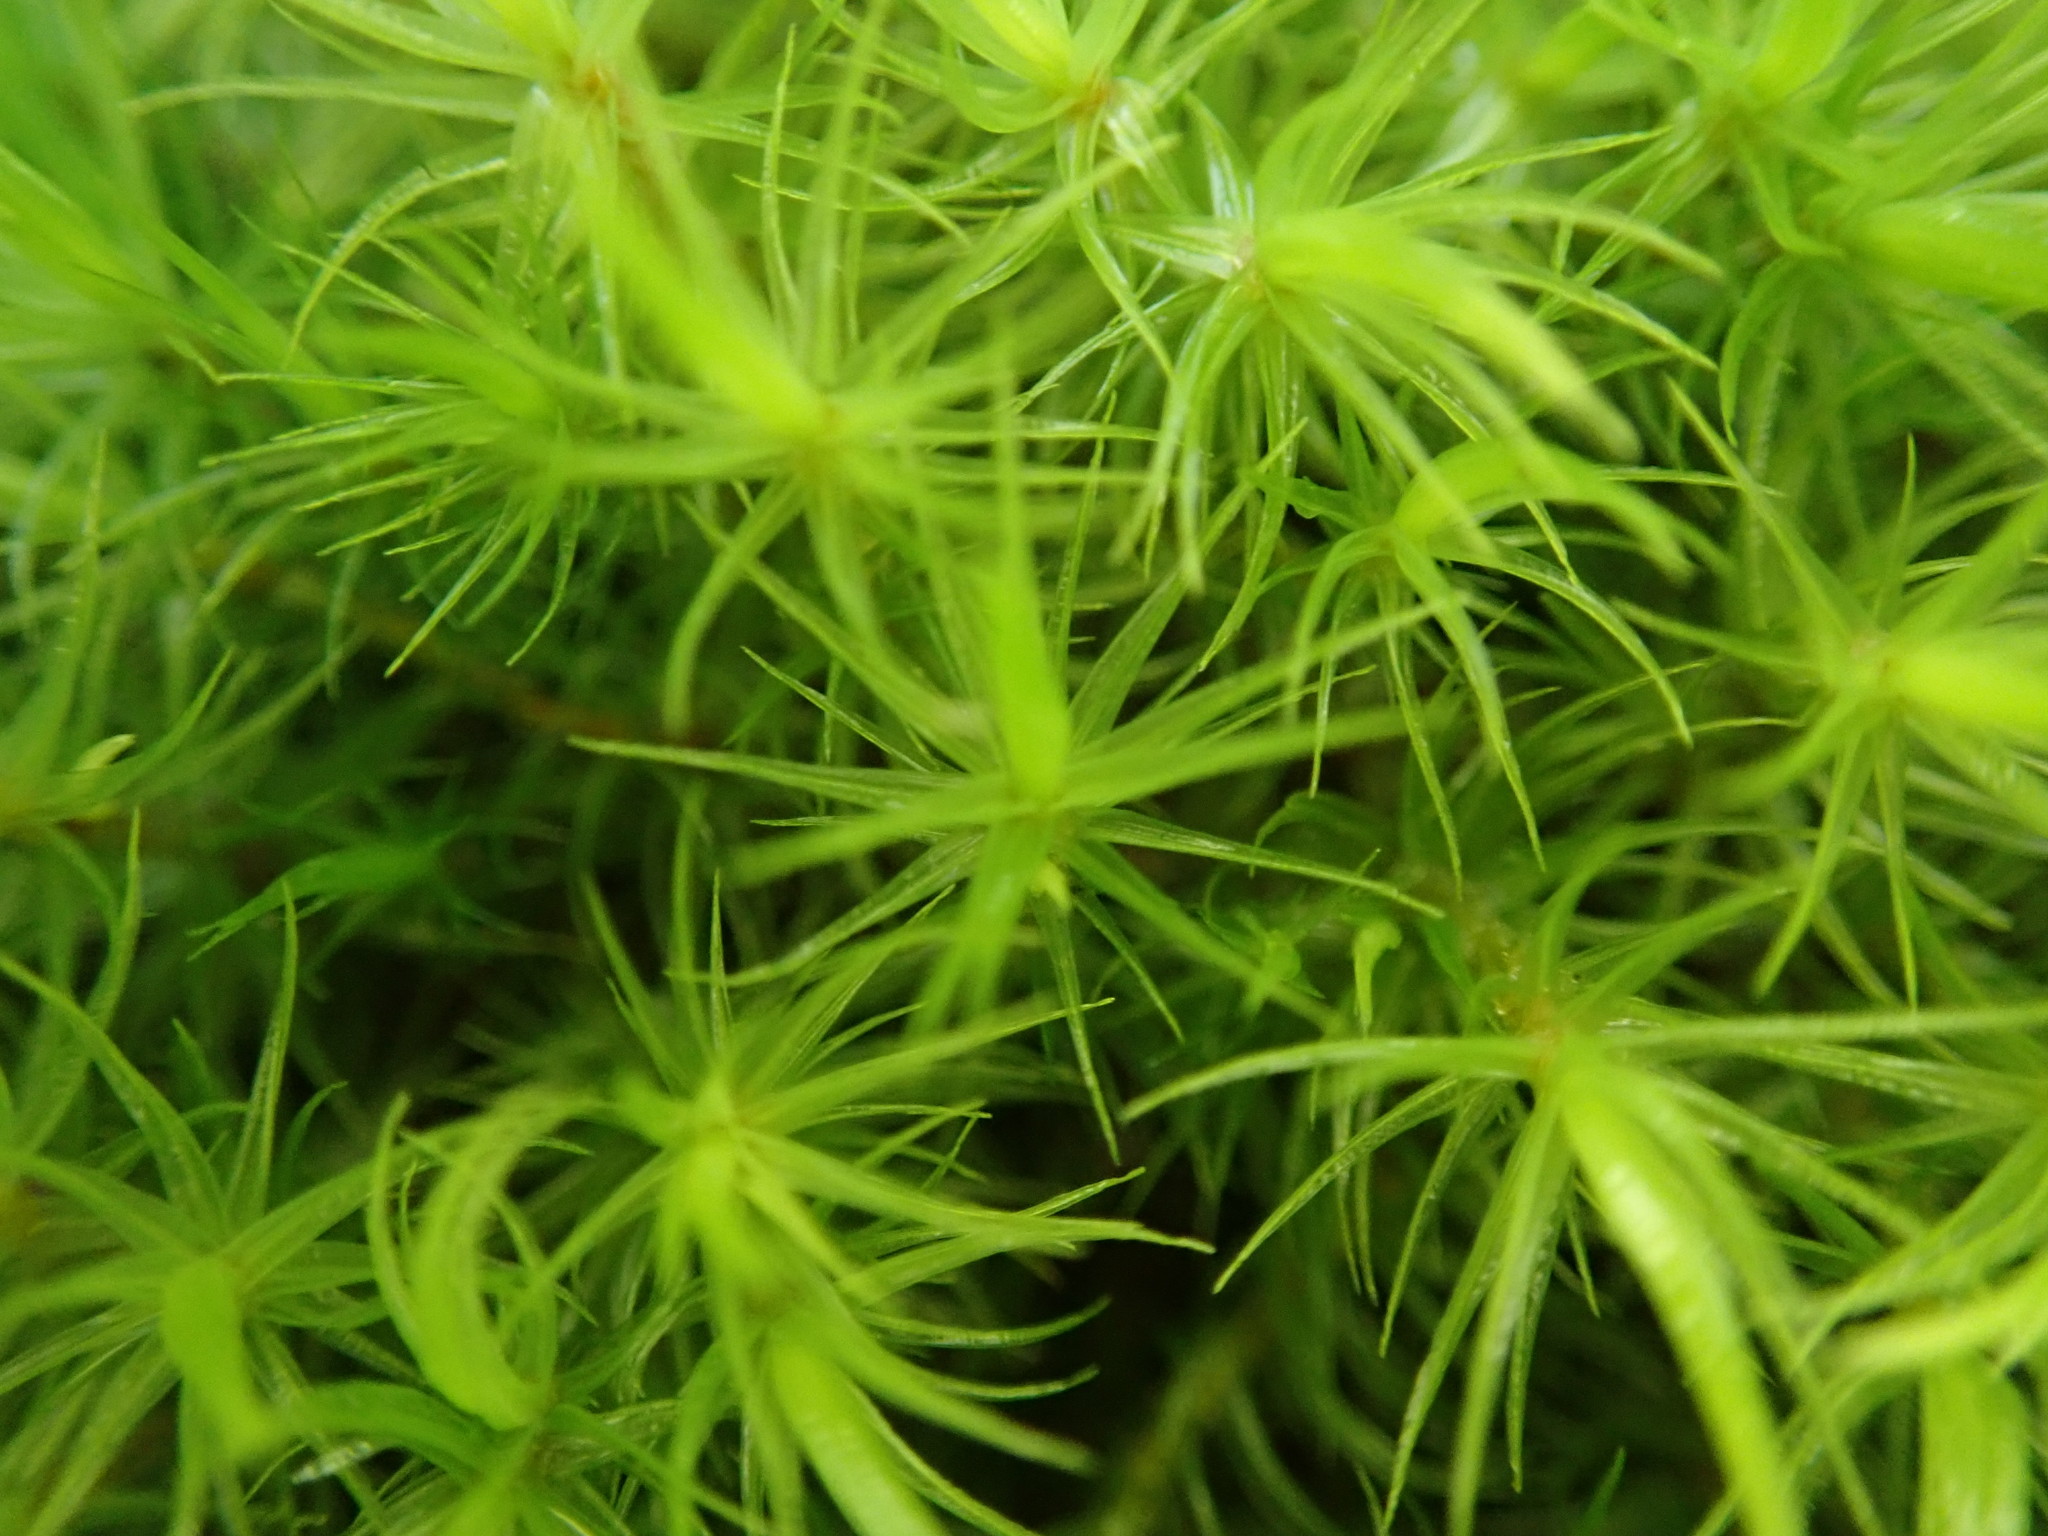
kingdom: Plantae
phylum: Bryophyta
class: Bryopsida
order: Dicranales
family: Dicranaceae
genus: Dicranum
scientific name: Dicranum scoparium
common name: Broom fork-moss
